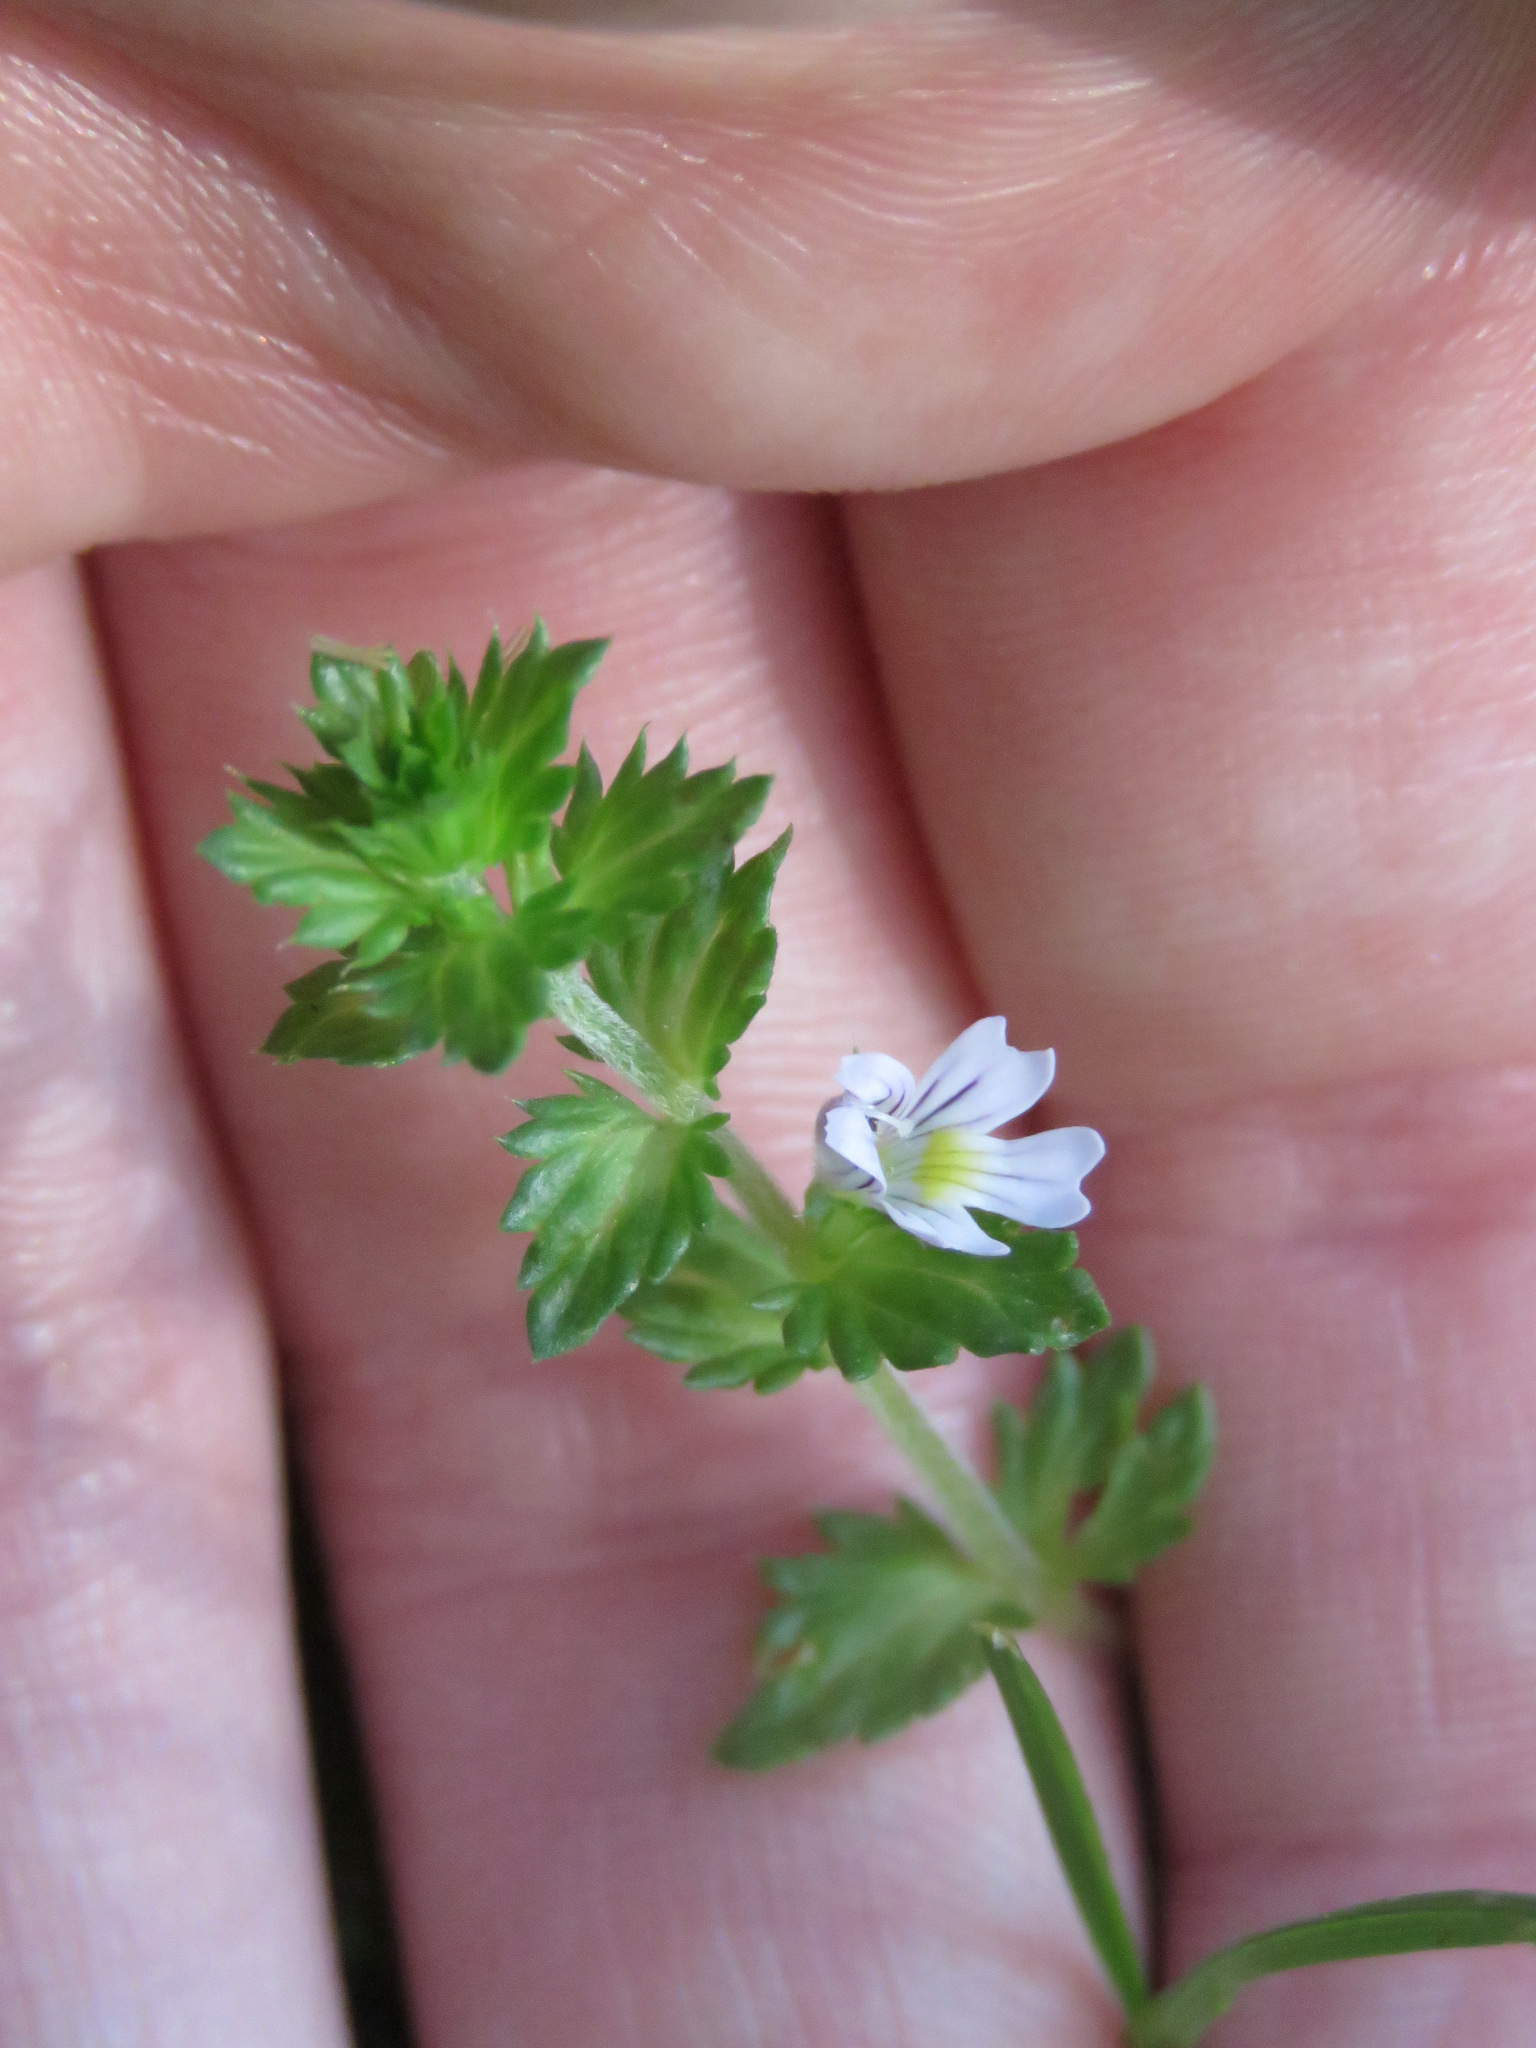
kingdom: Plantae
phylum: Tracheophyta
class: Magnoliopsida
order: Lamiales
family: Orobanchaceae
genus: Euphrasia
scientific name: Euphrasia nemorosa
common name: Common eyebright
